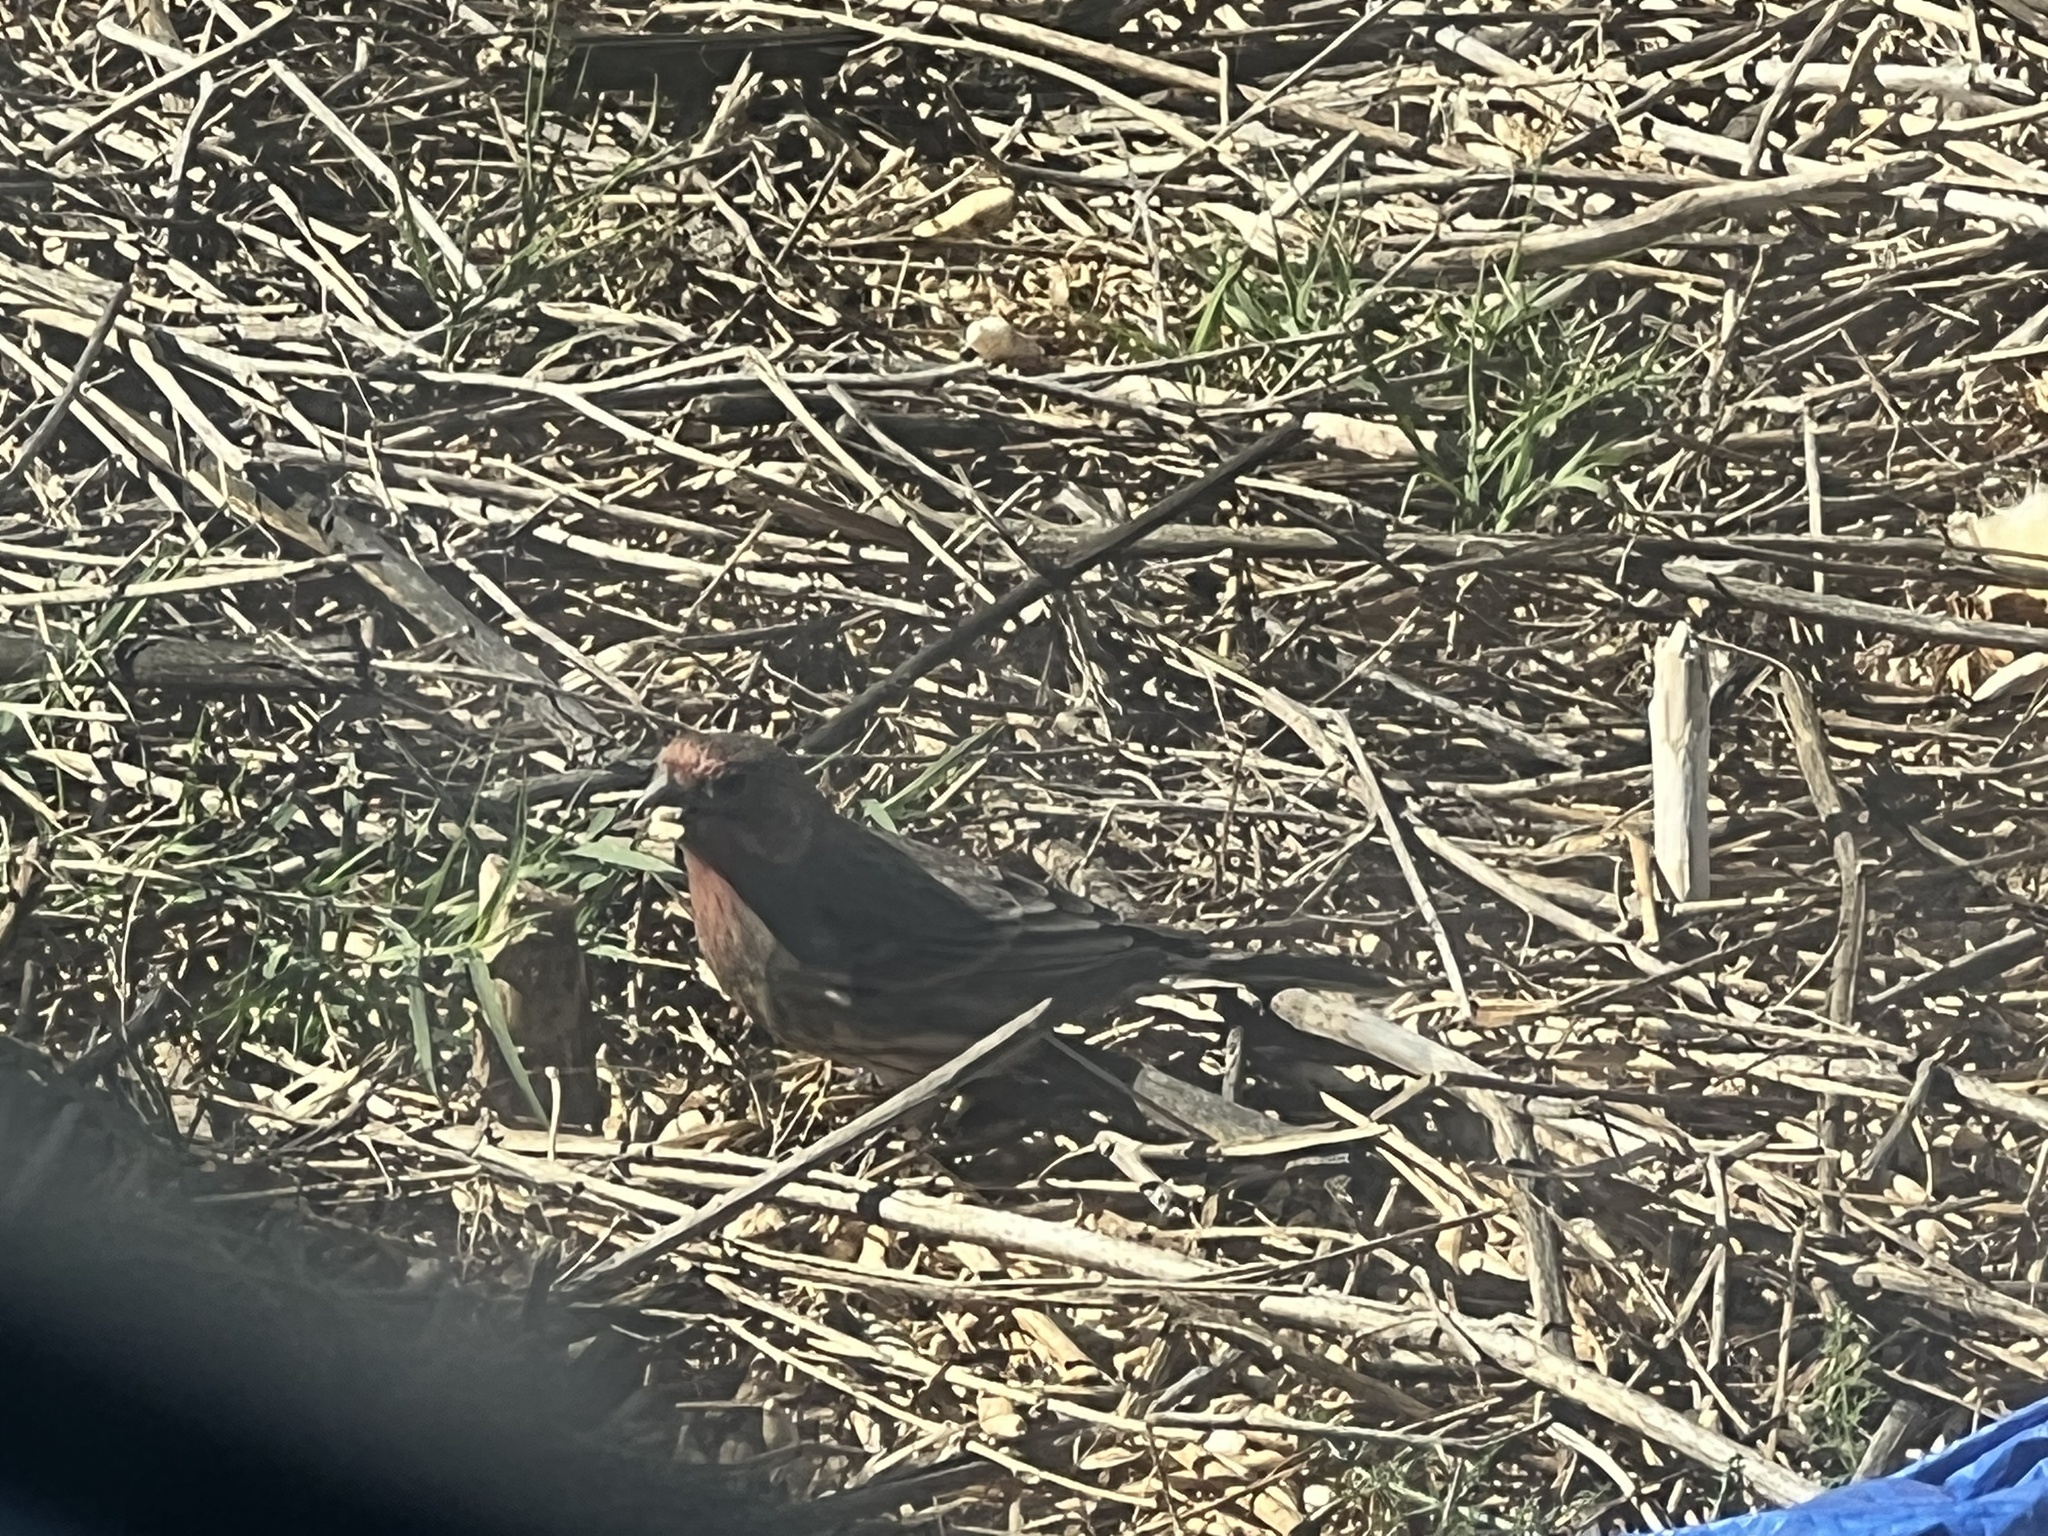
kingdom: Animalia
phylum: Chordata
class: Aves
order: Passeriformes
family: Fringillidae
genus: Haemorhous
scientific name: Haemorhous mexicanus
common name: House finch
